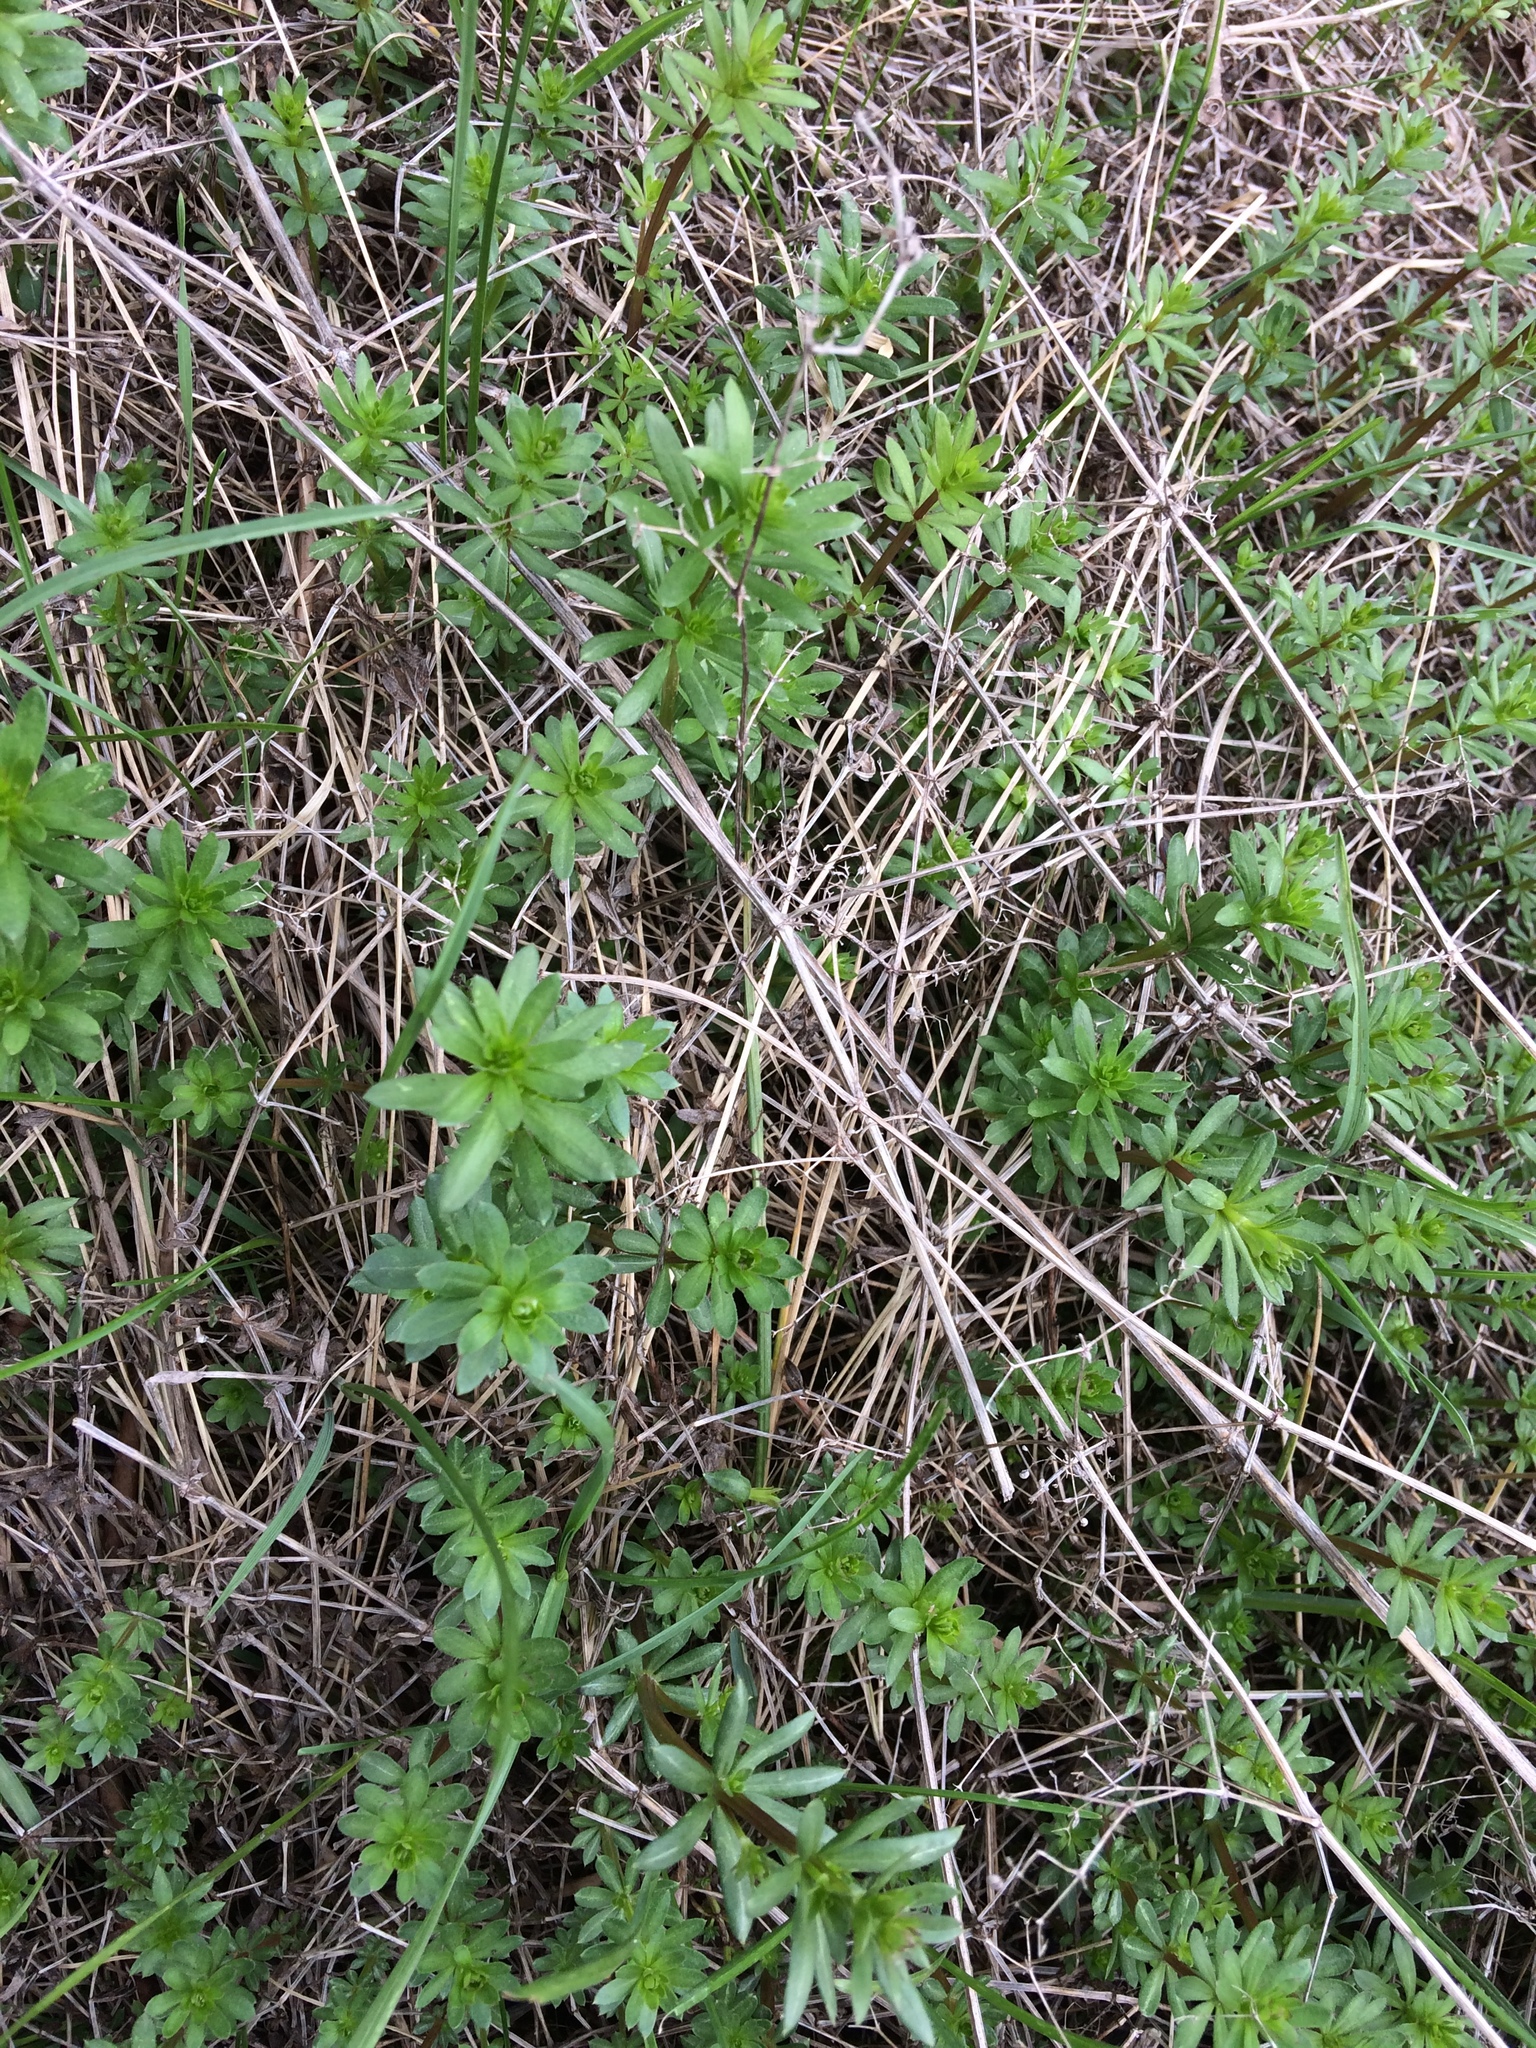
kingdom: Plantae
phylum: Tracheophyta
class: Magnoliopsida
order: Gentianales
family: Rubiaceae
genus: Galium
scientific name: Galium mollugo
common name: Hedge bedstraw
